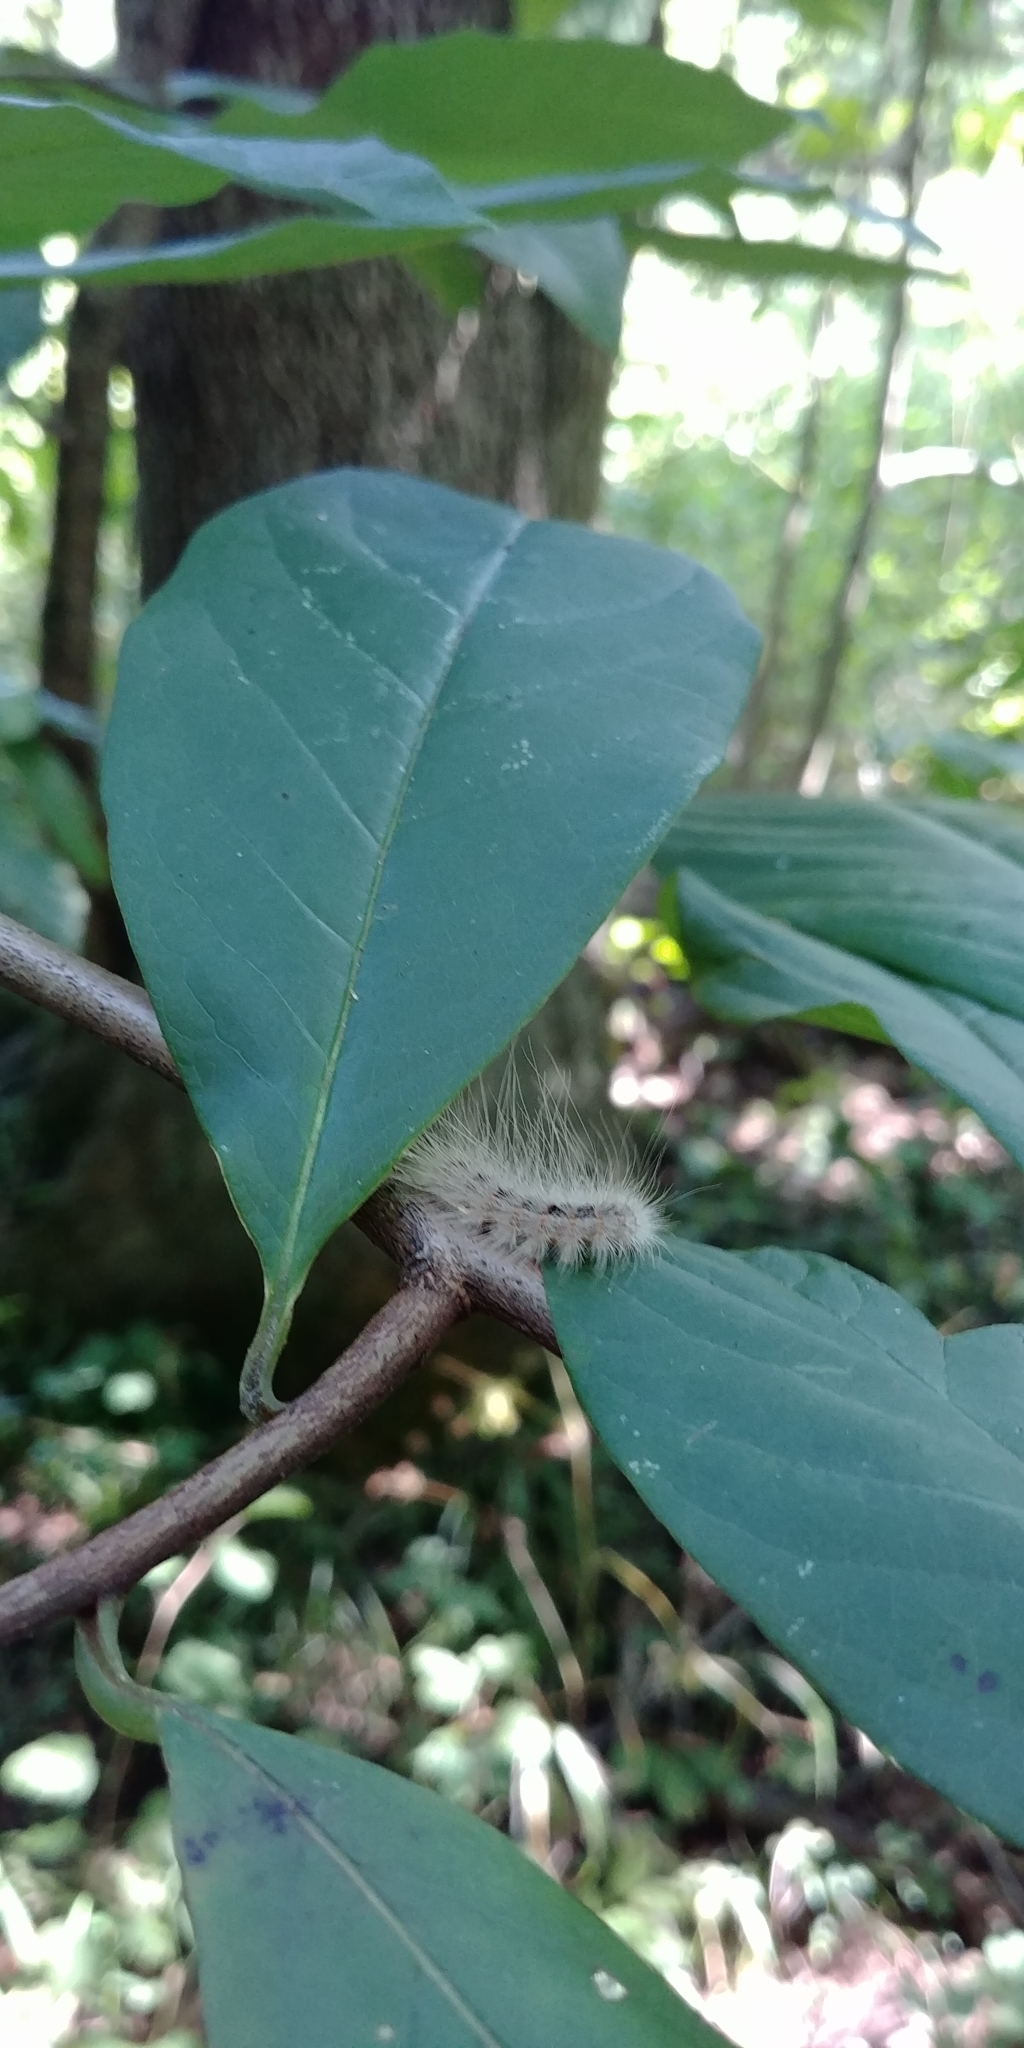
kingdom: Animalia
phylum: Arthropoda
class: Insecta
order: Lepidoptera
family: Erebidae
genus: Hyphantria
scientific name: Hyphantria cunea
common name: American white moth
